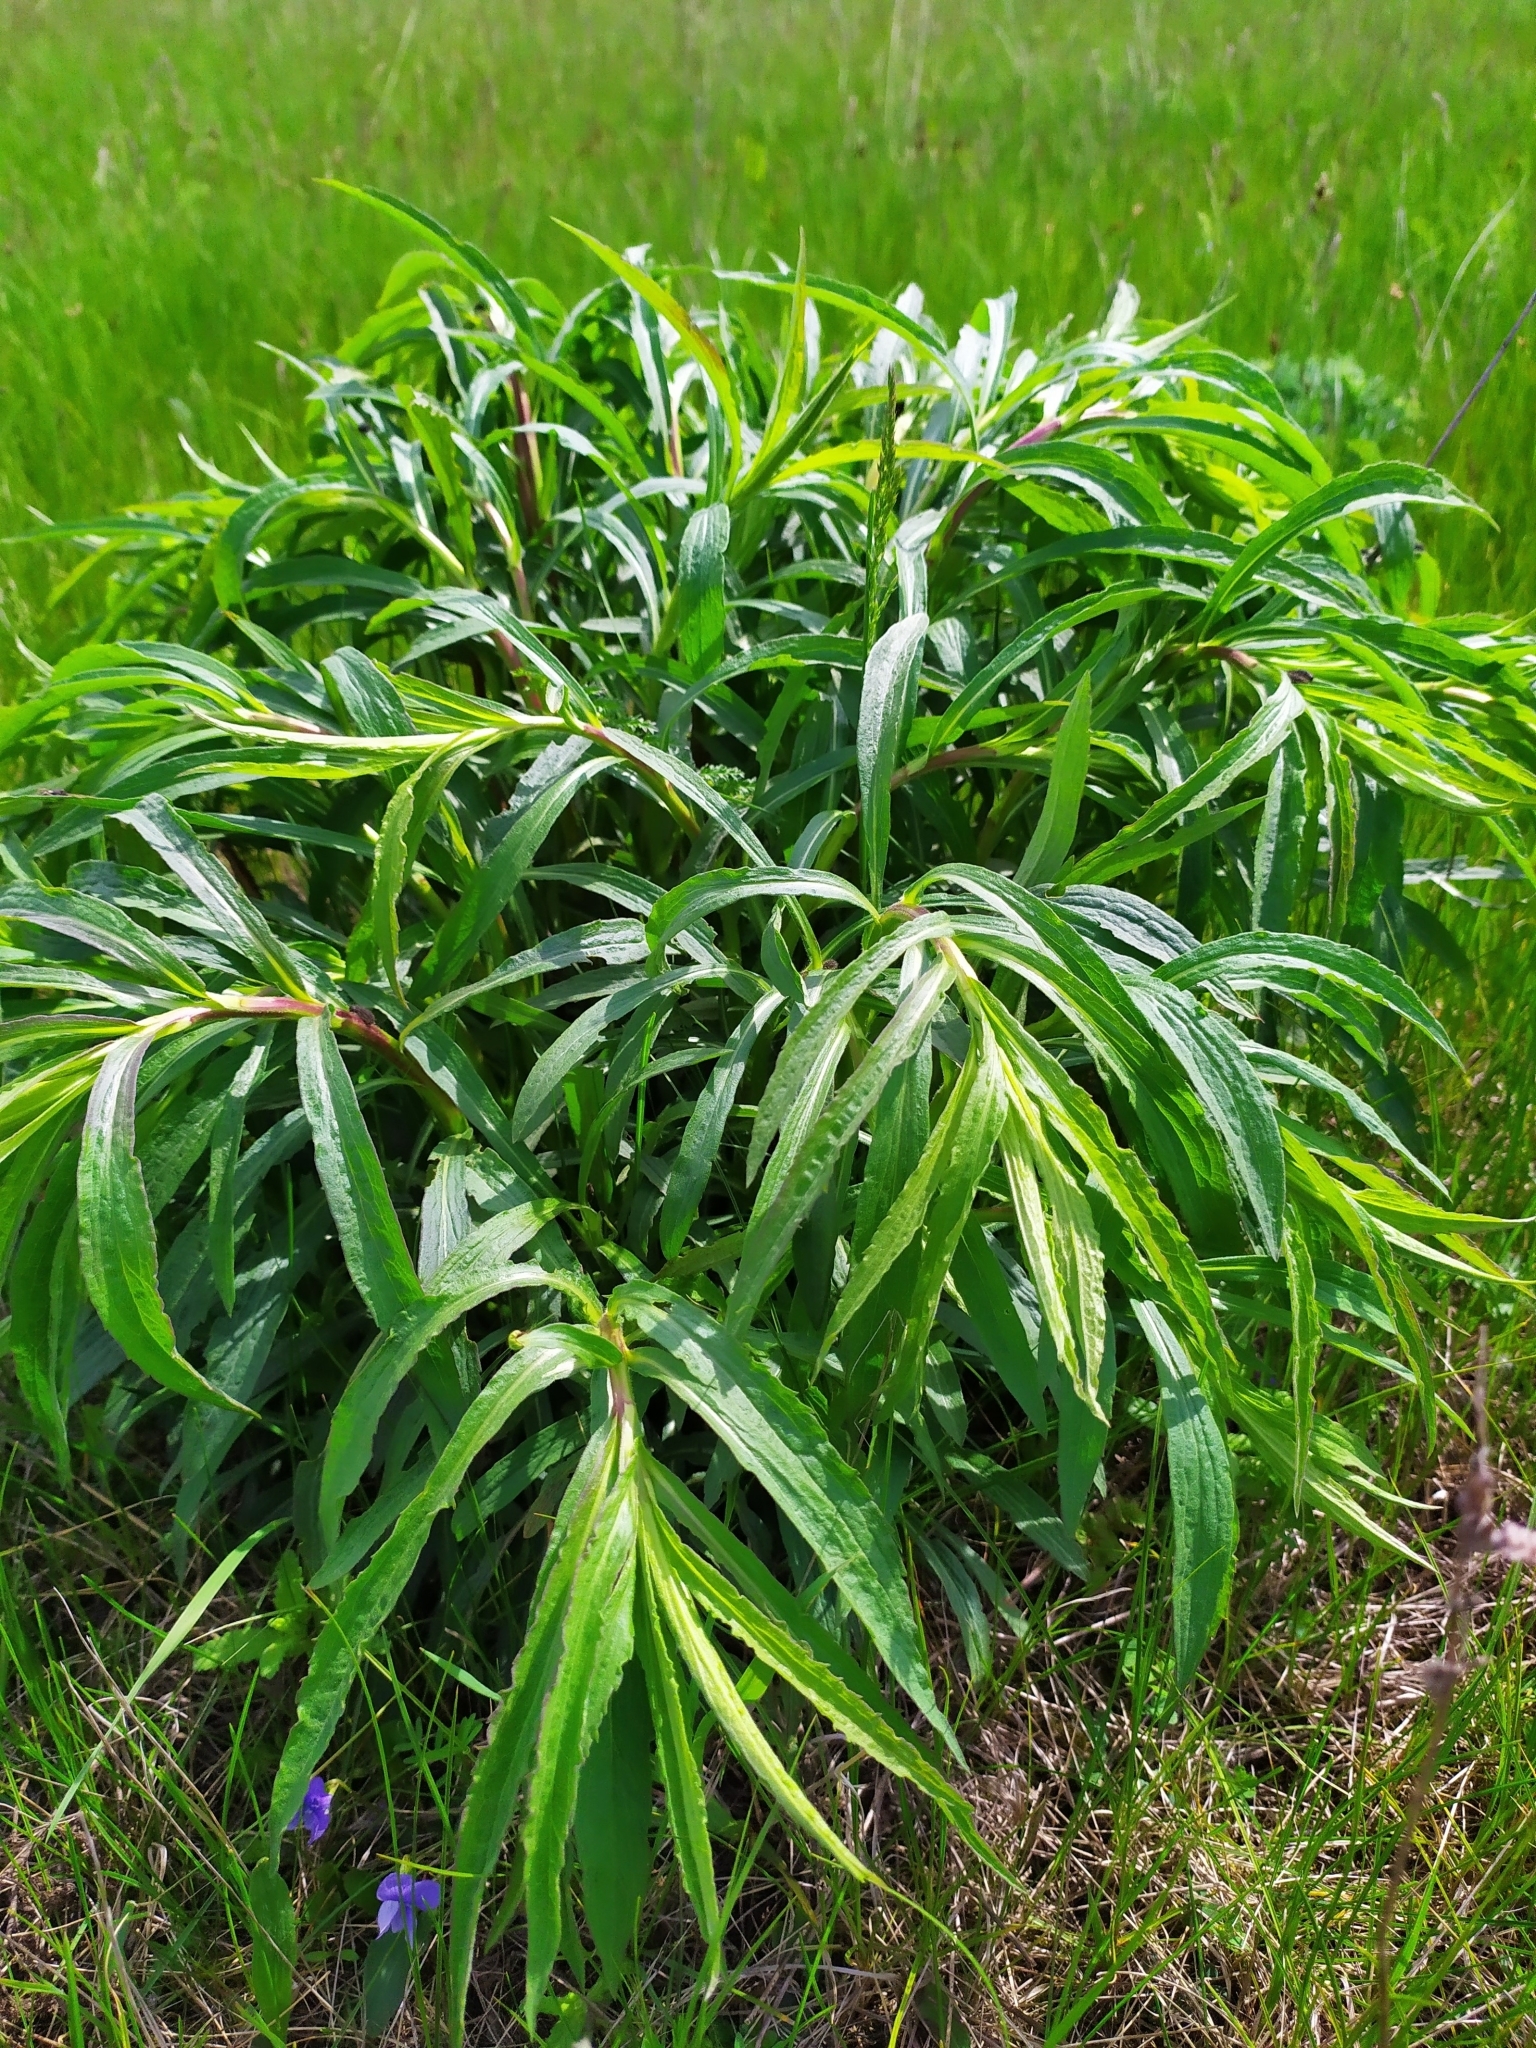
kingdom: Plantae
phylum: Tracheophyta
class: Magnoliopsida
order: Asterales
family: Asteraceae
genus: Solidago
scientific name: Solidago canadensis
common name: Canada goldenrod
